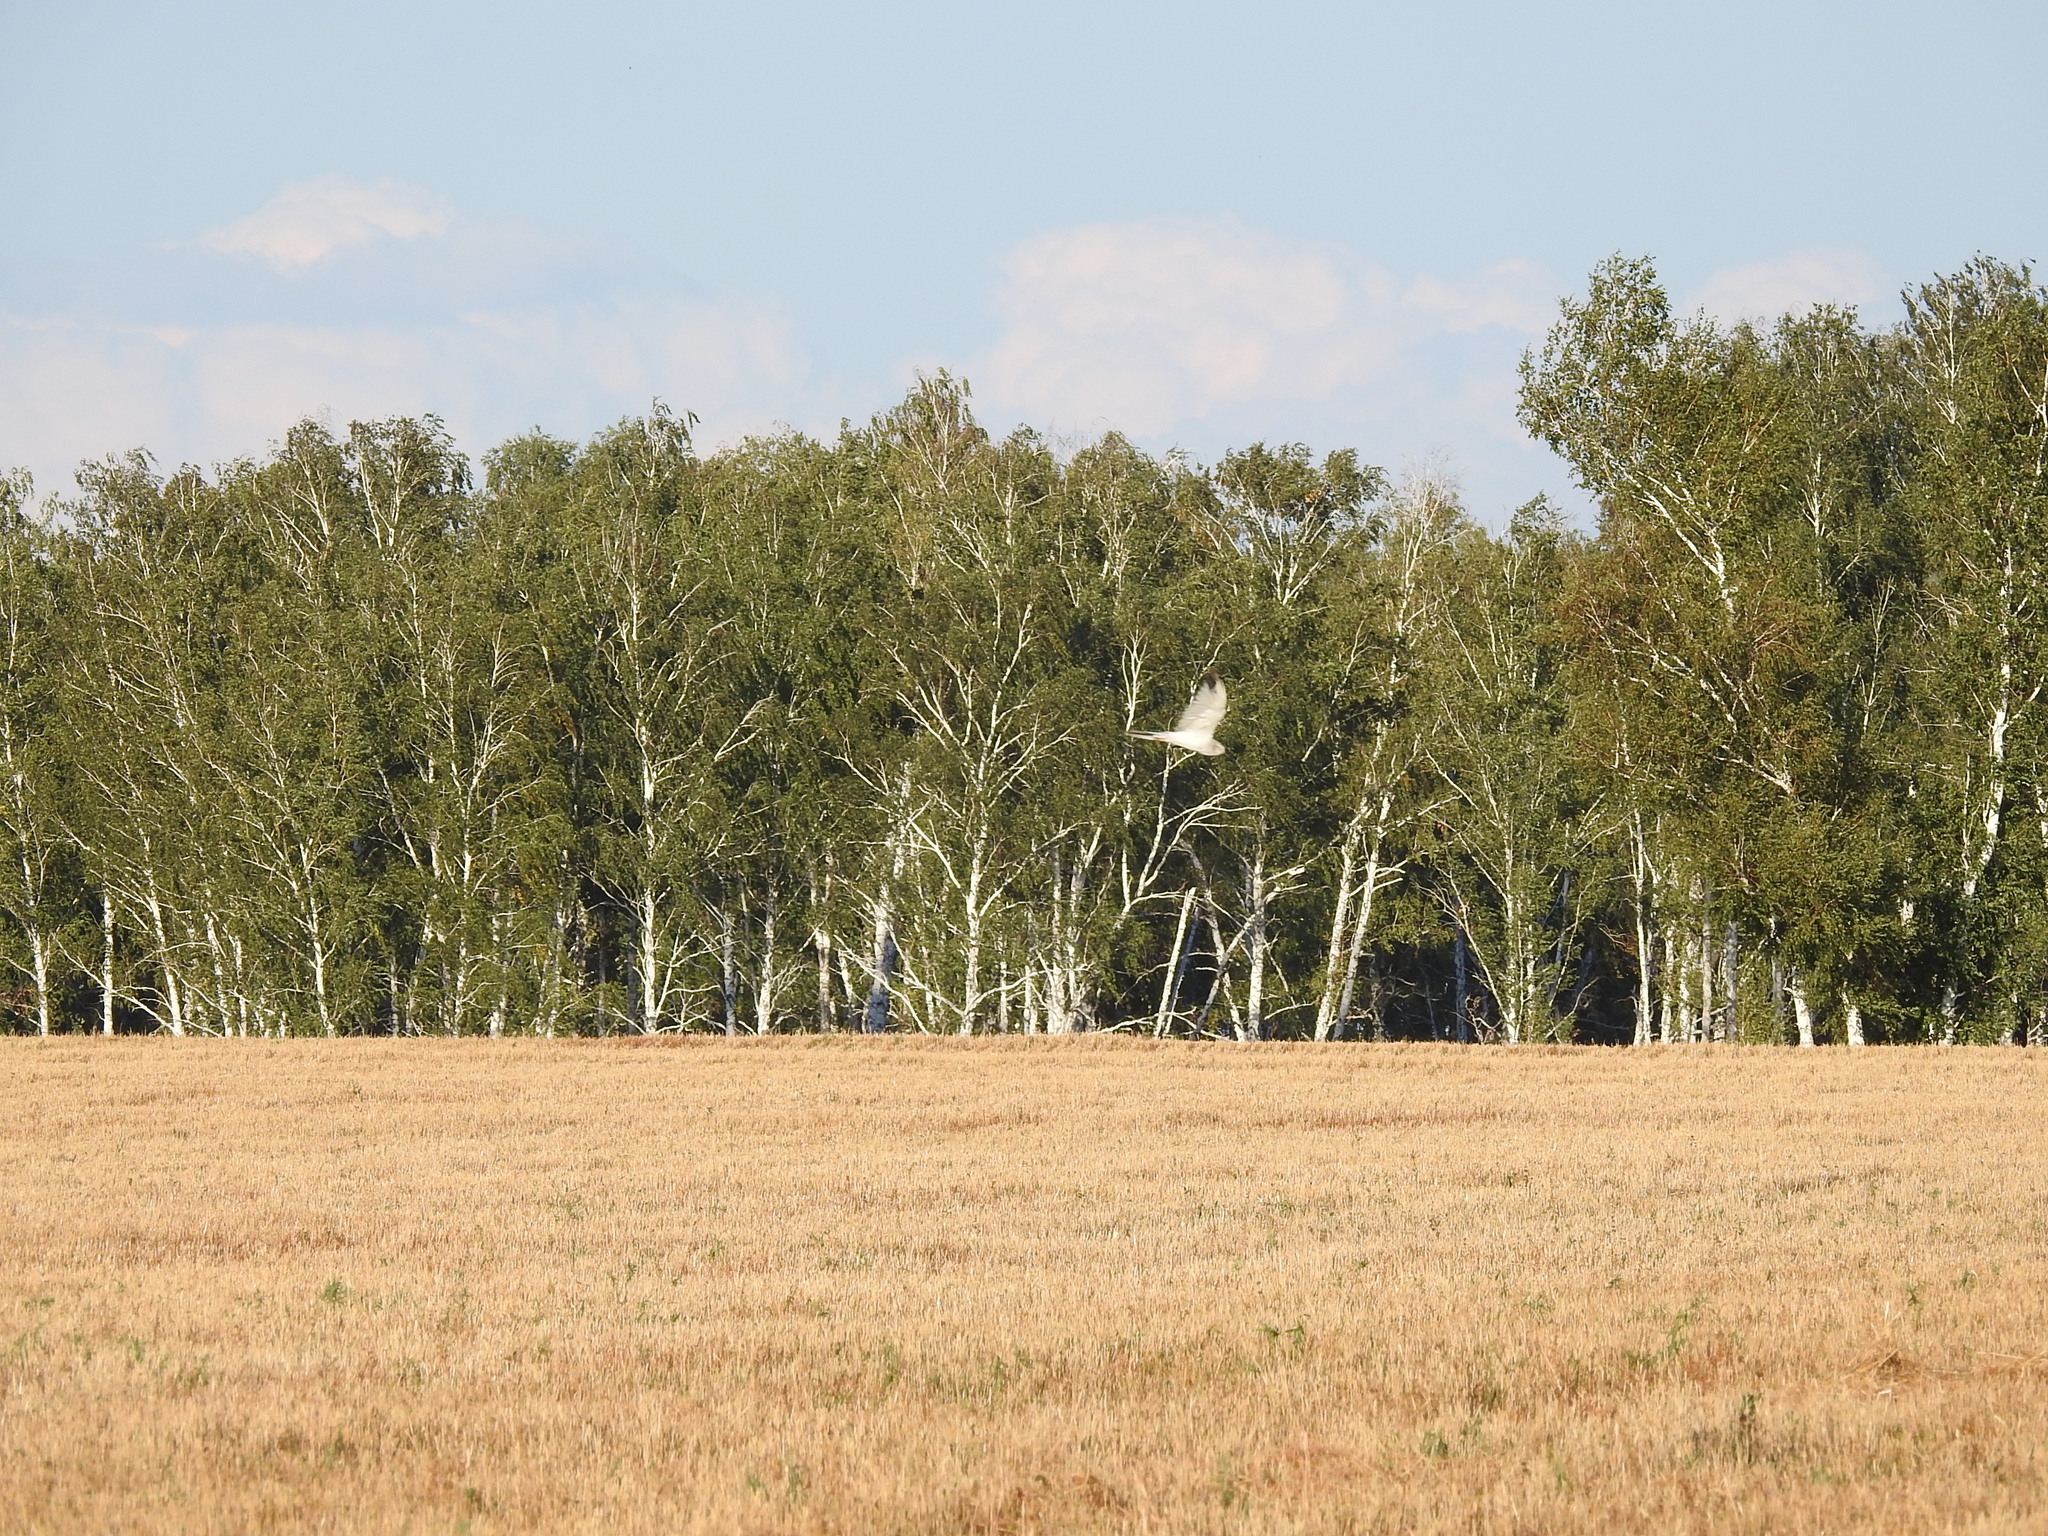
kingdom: Animalia
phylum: Chordata
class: Aves
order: Accipitriformes
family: Accipitridae
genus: Circus
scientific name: Circus macrourus
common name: Pallid harrier
